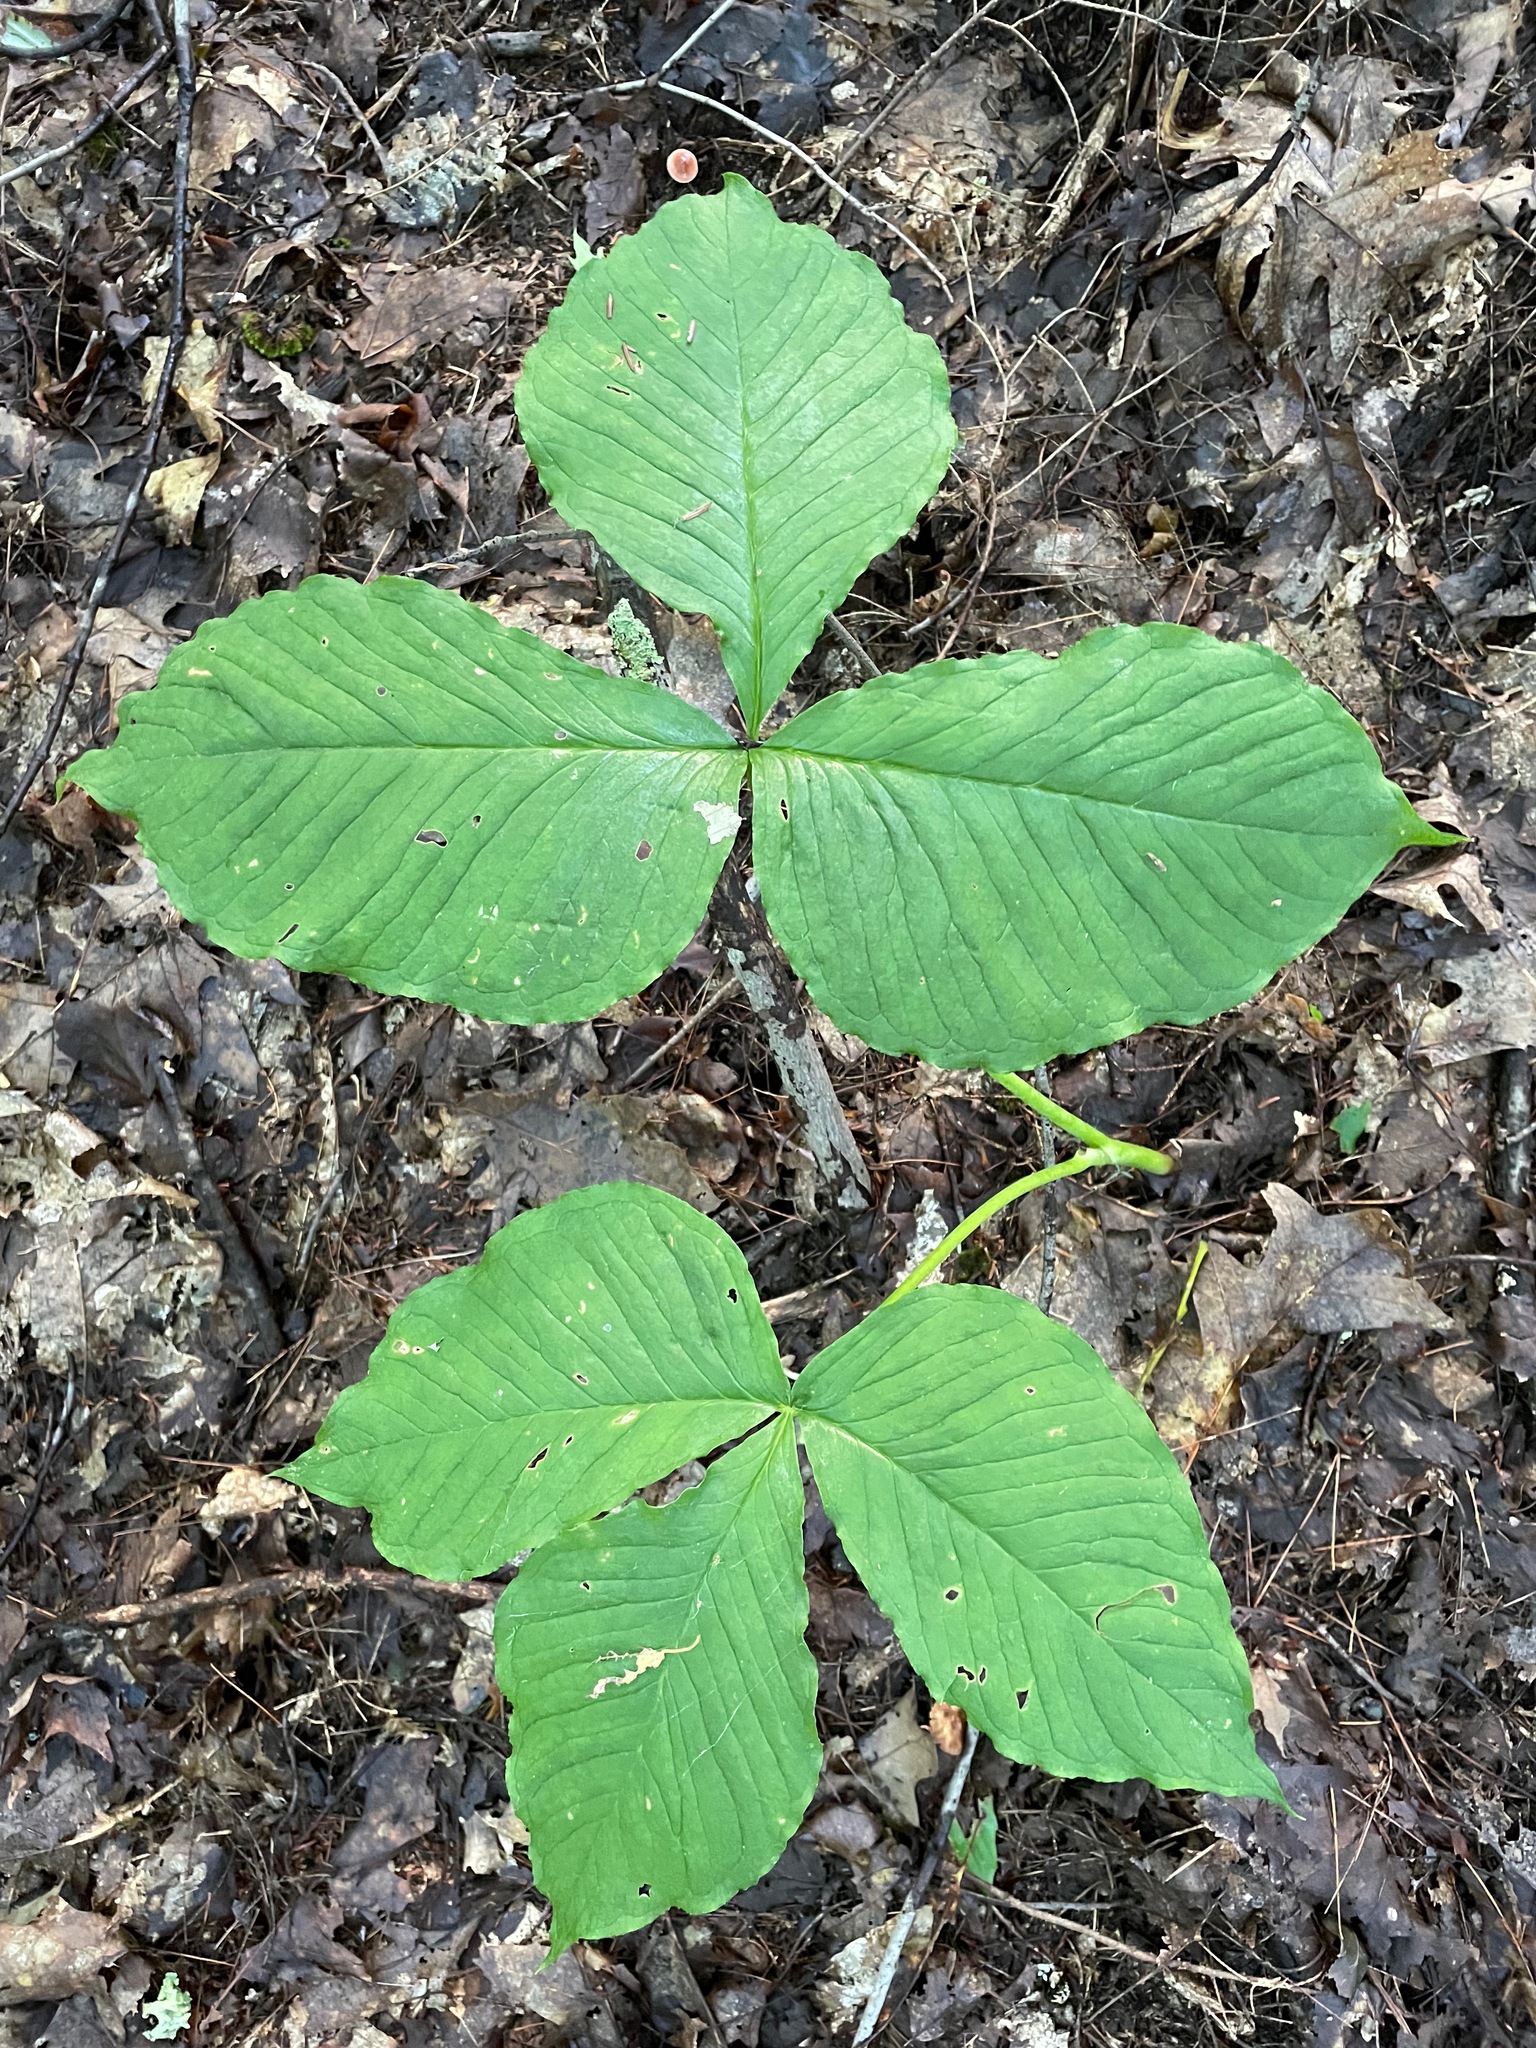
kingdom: Plantae
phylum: Tracheophyta
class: Liliopsida
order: Alismatales
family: Araceae
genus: Arisaema
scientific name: Arisaema
